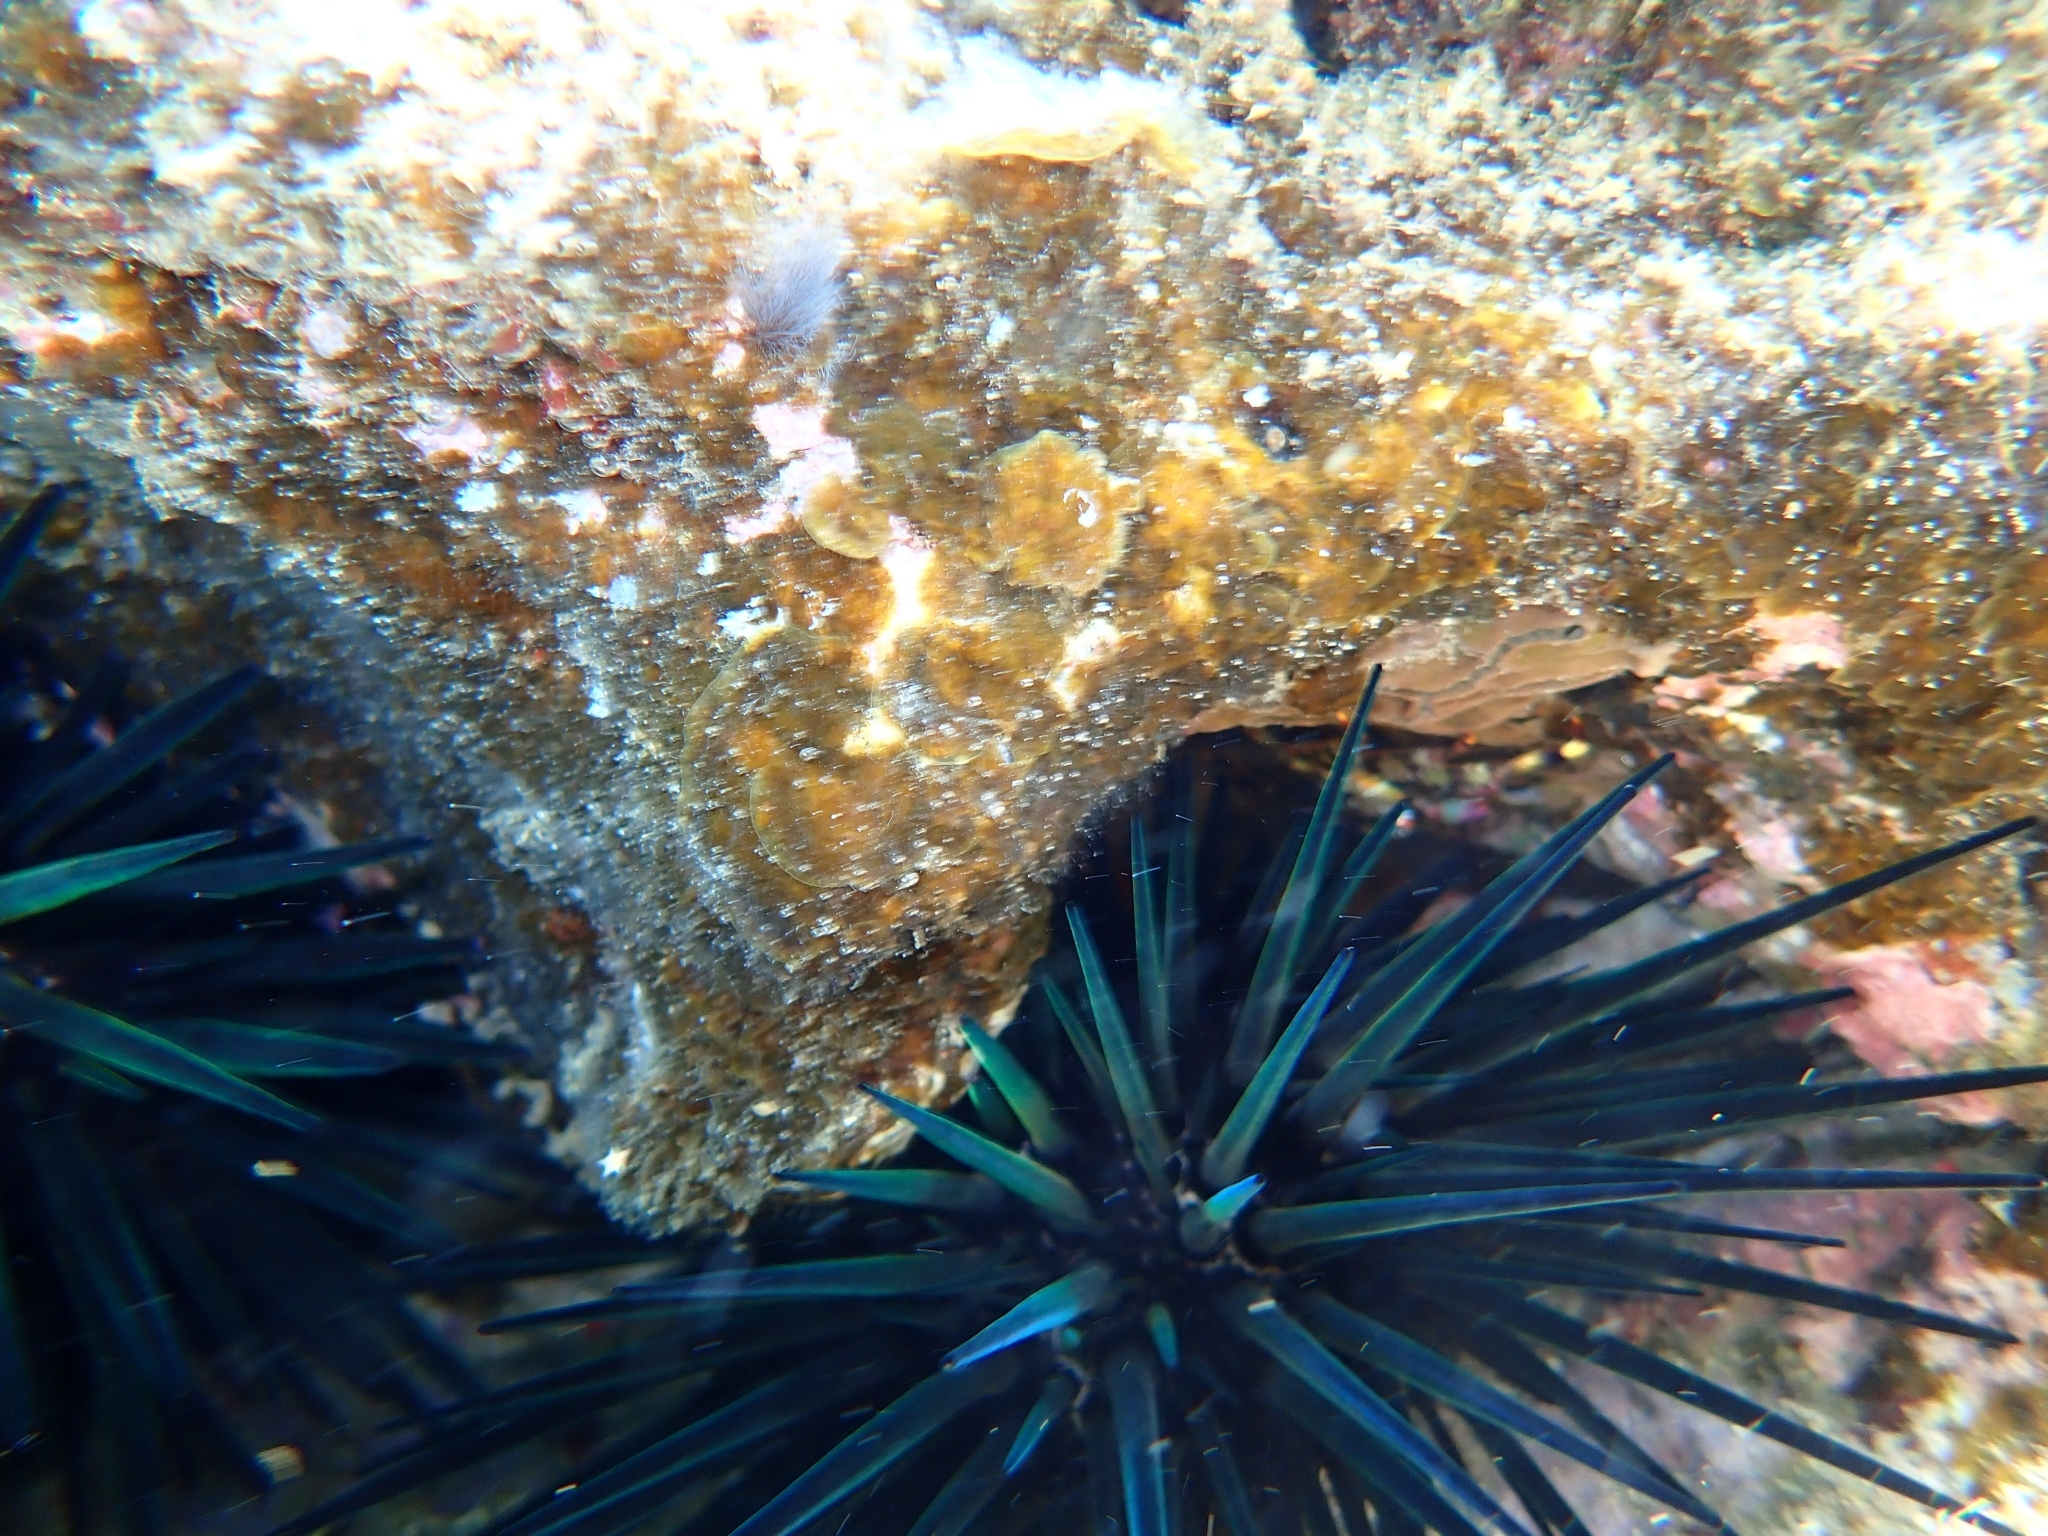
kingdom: Animalia
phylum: Echinodermata
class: Echinoidea
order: Stomopneustoida
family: Stomopneustidae
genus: Stomopneustes
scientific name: Stomopneustes variolaris
